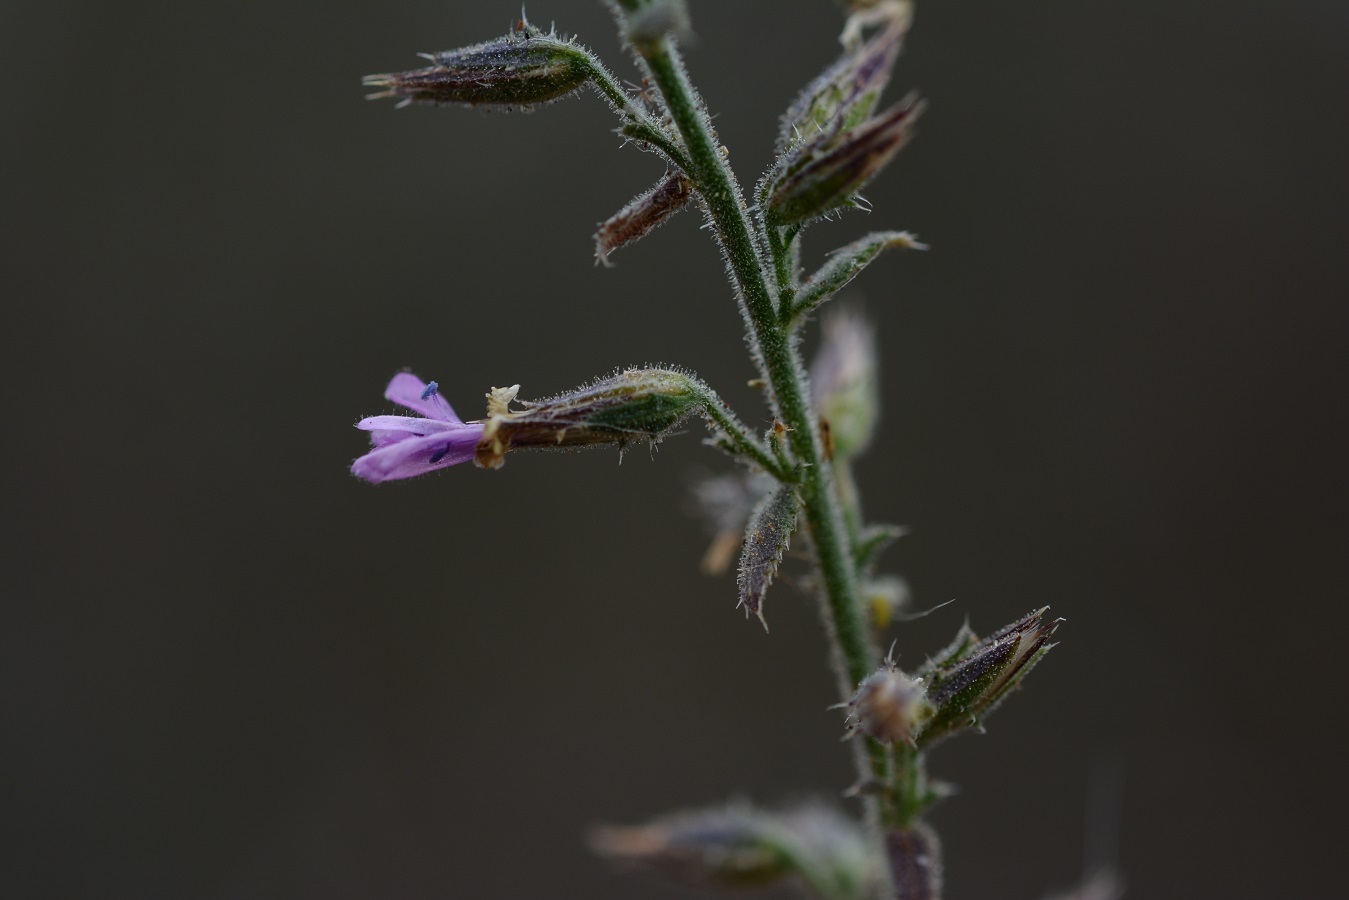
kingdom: Plantae
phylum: Tracheophyta
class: Magnoliopsida
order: Ericales
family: Polemoniaceae
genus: Loeselia
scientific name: Loeselia pumila
